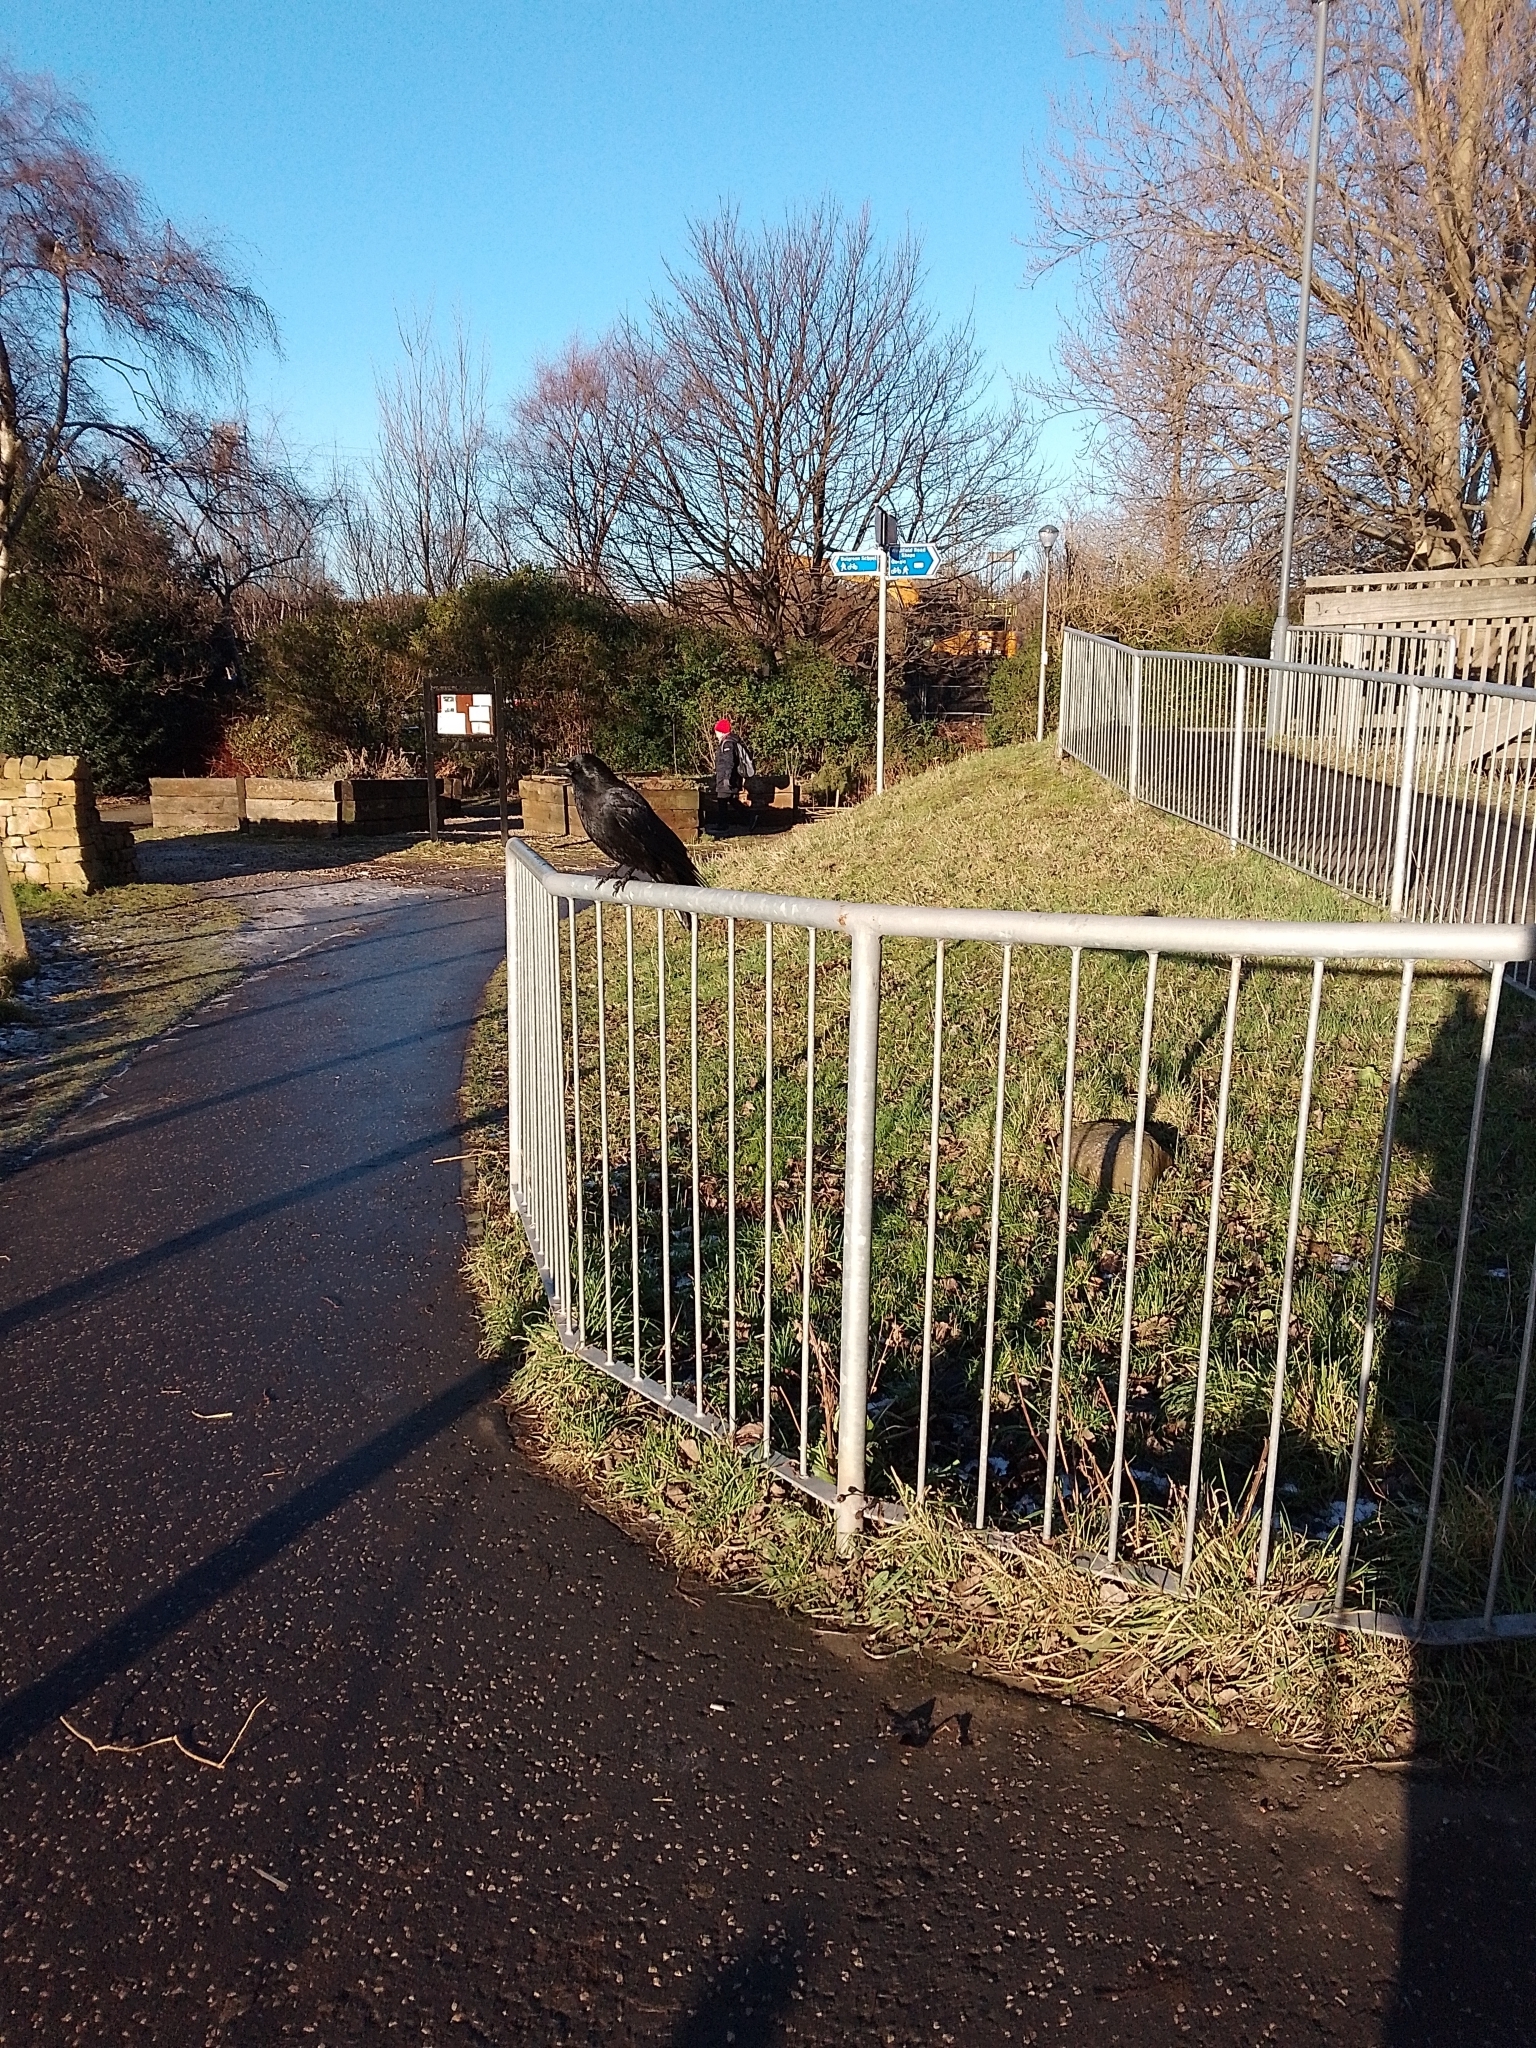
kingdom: Animalia
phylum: Chordata
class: Aves
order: Passeriformes
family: Corvidae
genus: Corvus
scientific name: Corvus corone
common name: Carrion crow
